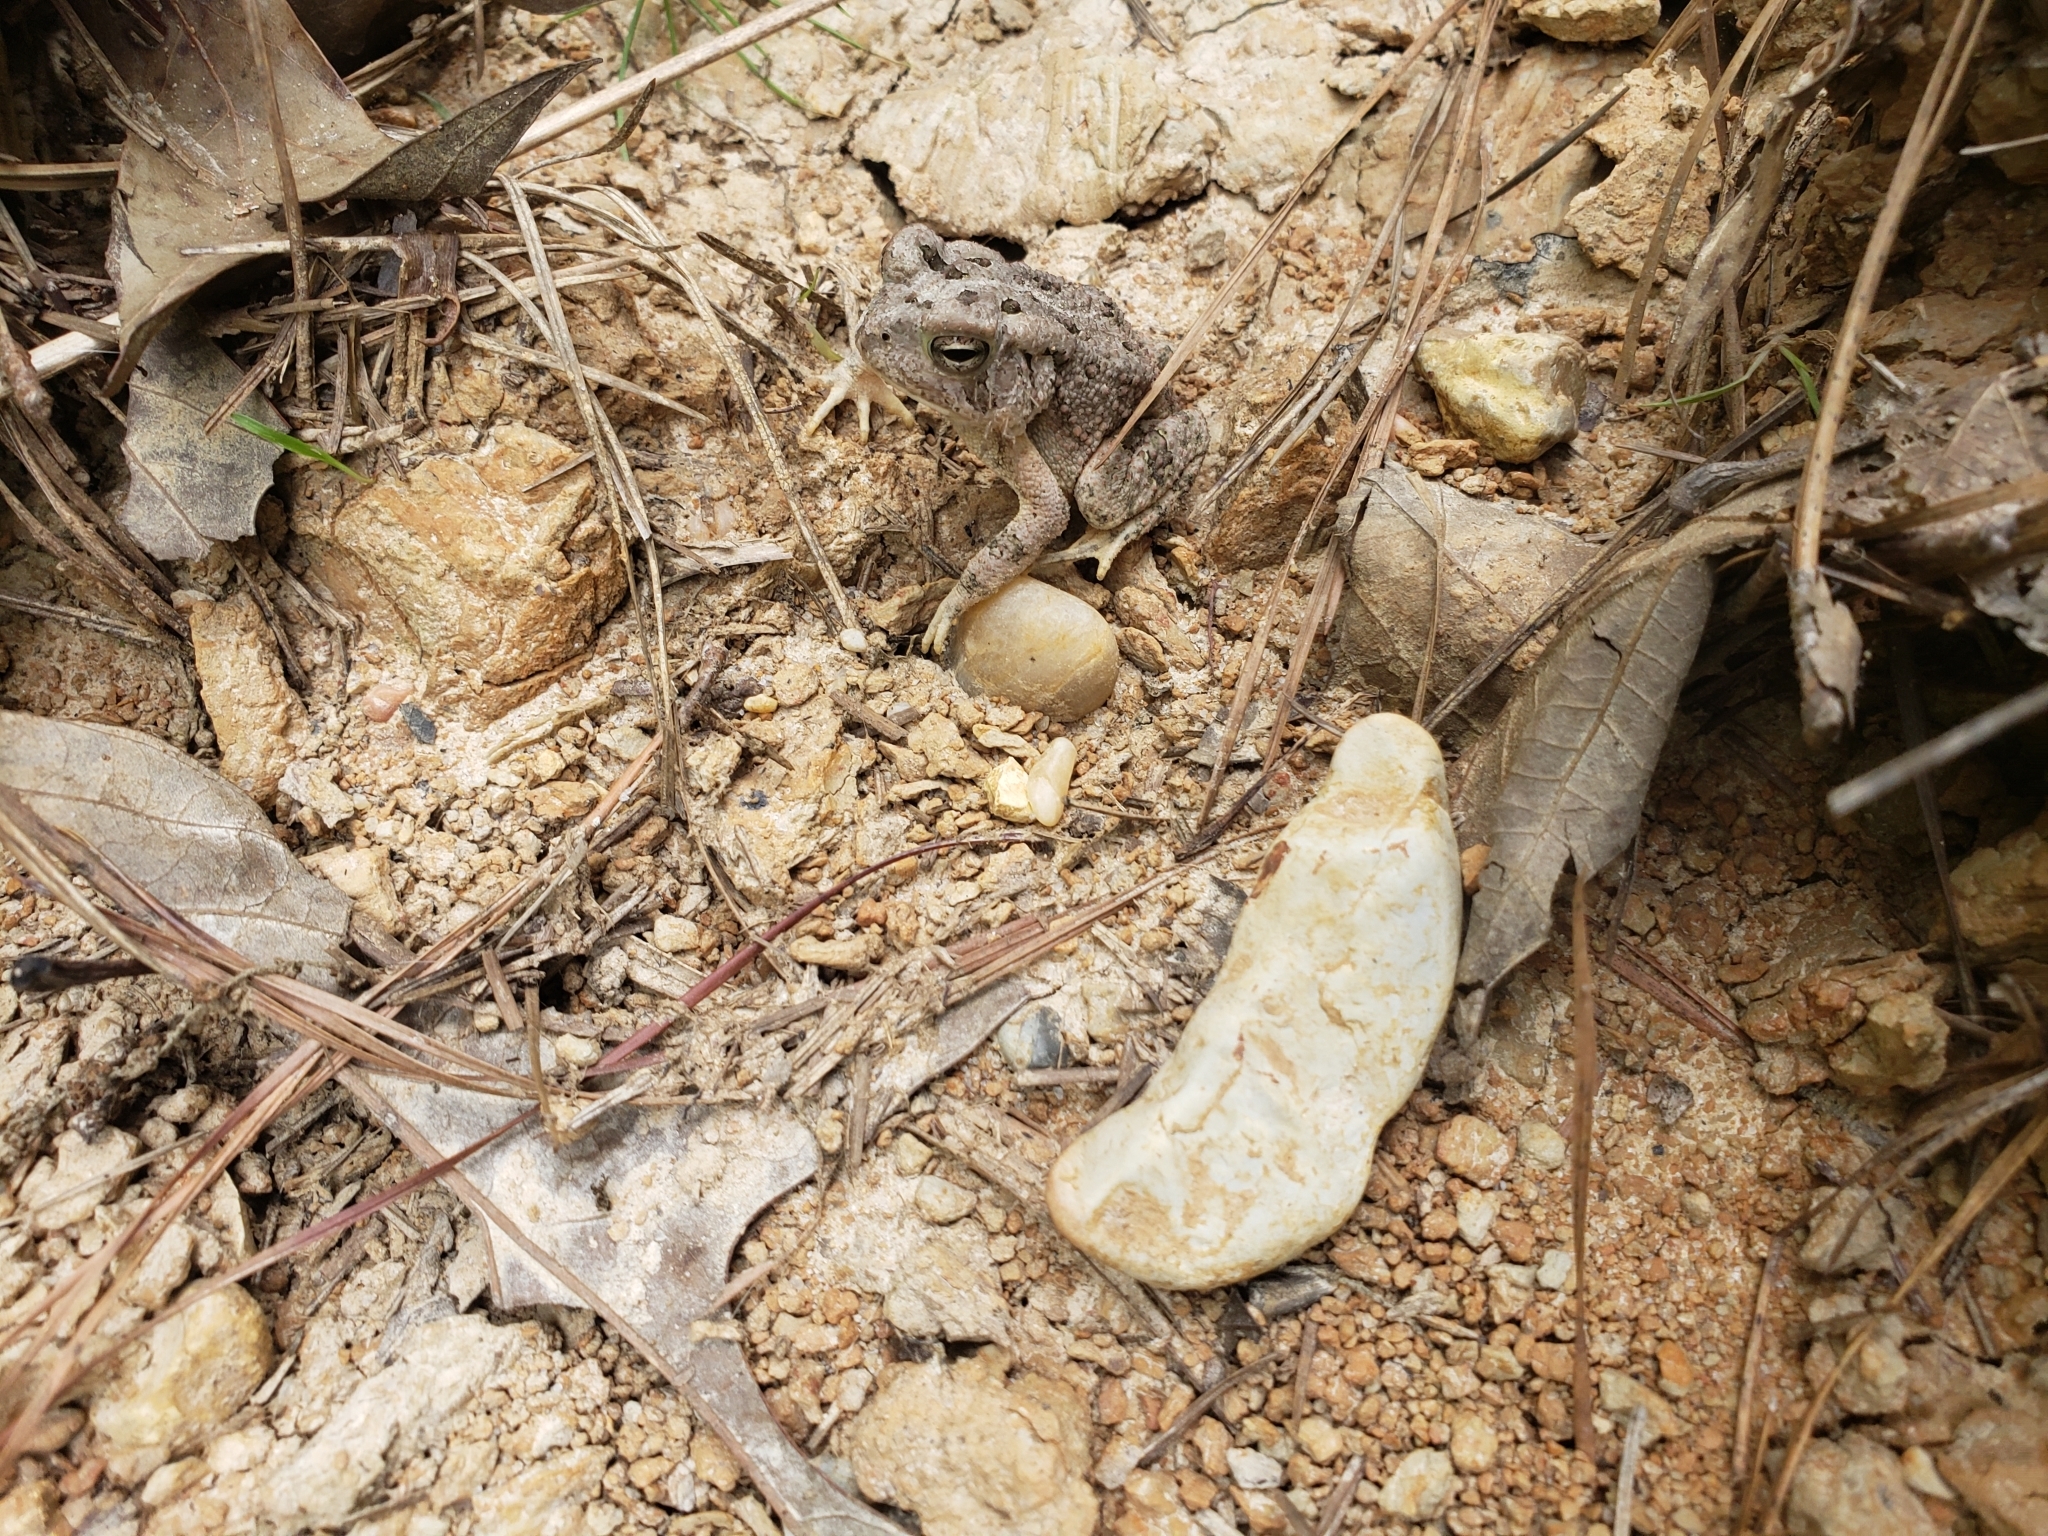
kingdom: Animalia
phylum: Chordata
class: Amphibia
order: Anura
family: Bufonidae
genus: Anaxyrus
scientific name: Anaxyrus fowleri
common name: Fowler's toad
